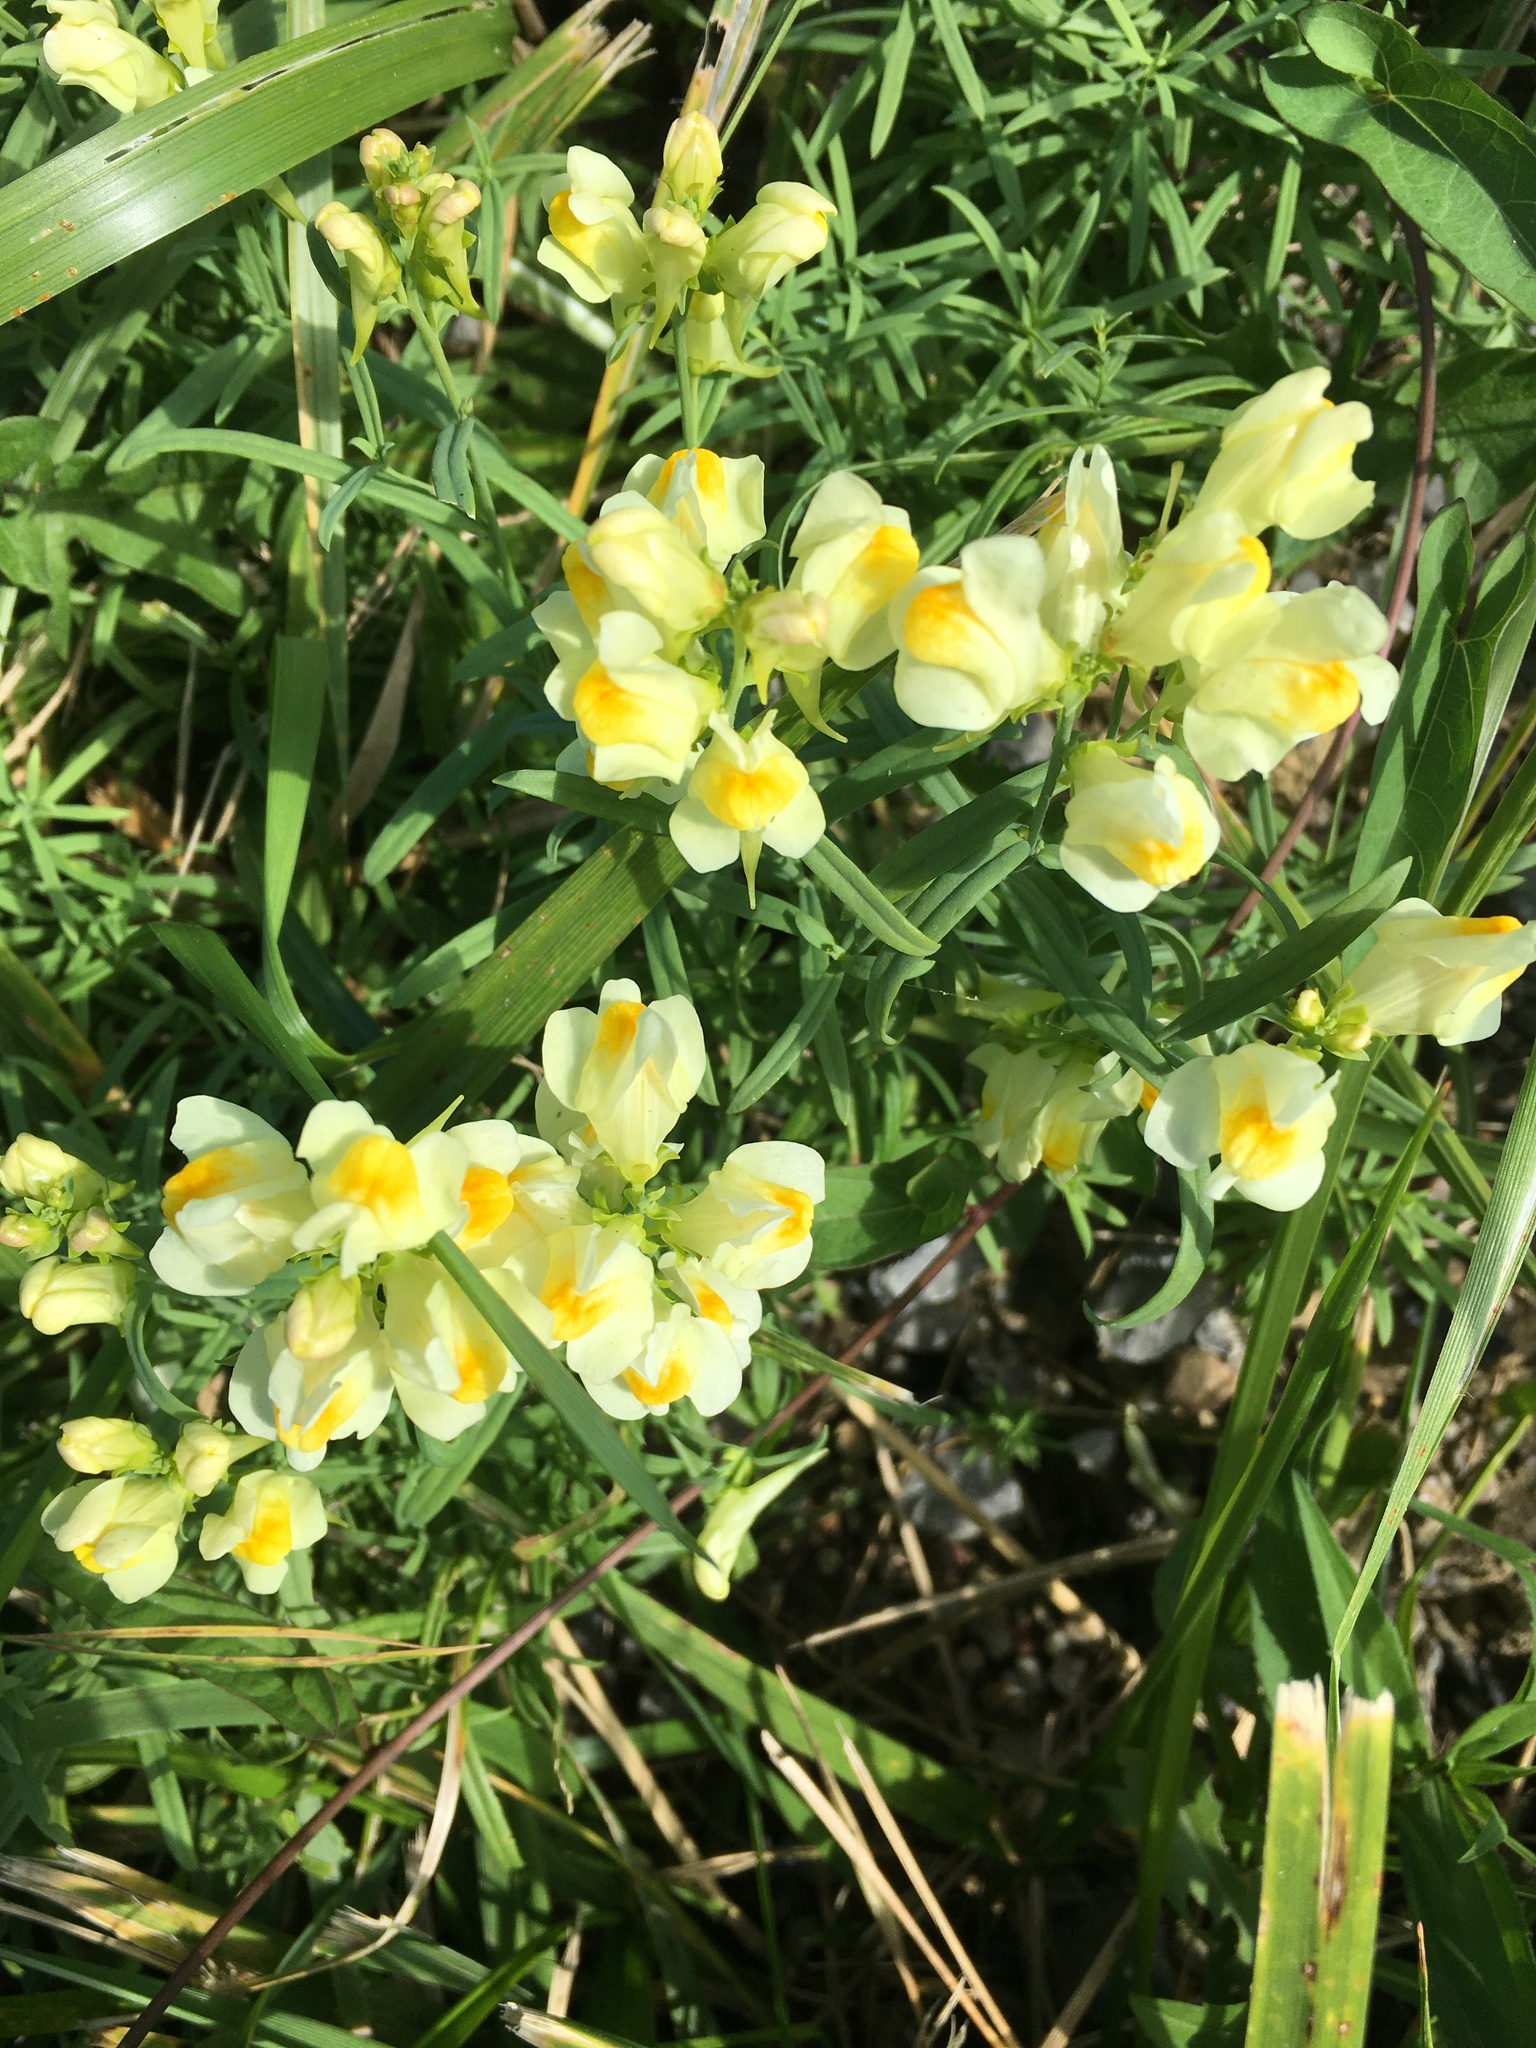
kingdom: Plantae
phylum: Tracheophyta
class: Magnoliopsida
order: Lamiales
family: Plantaginaceae
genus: Linaria
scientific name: Linaria vulgaris
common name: Butter and eggs
